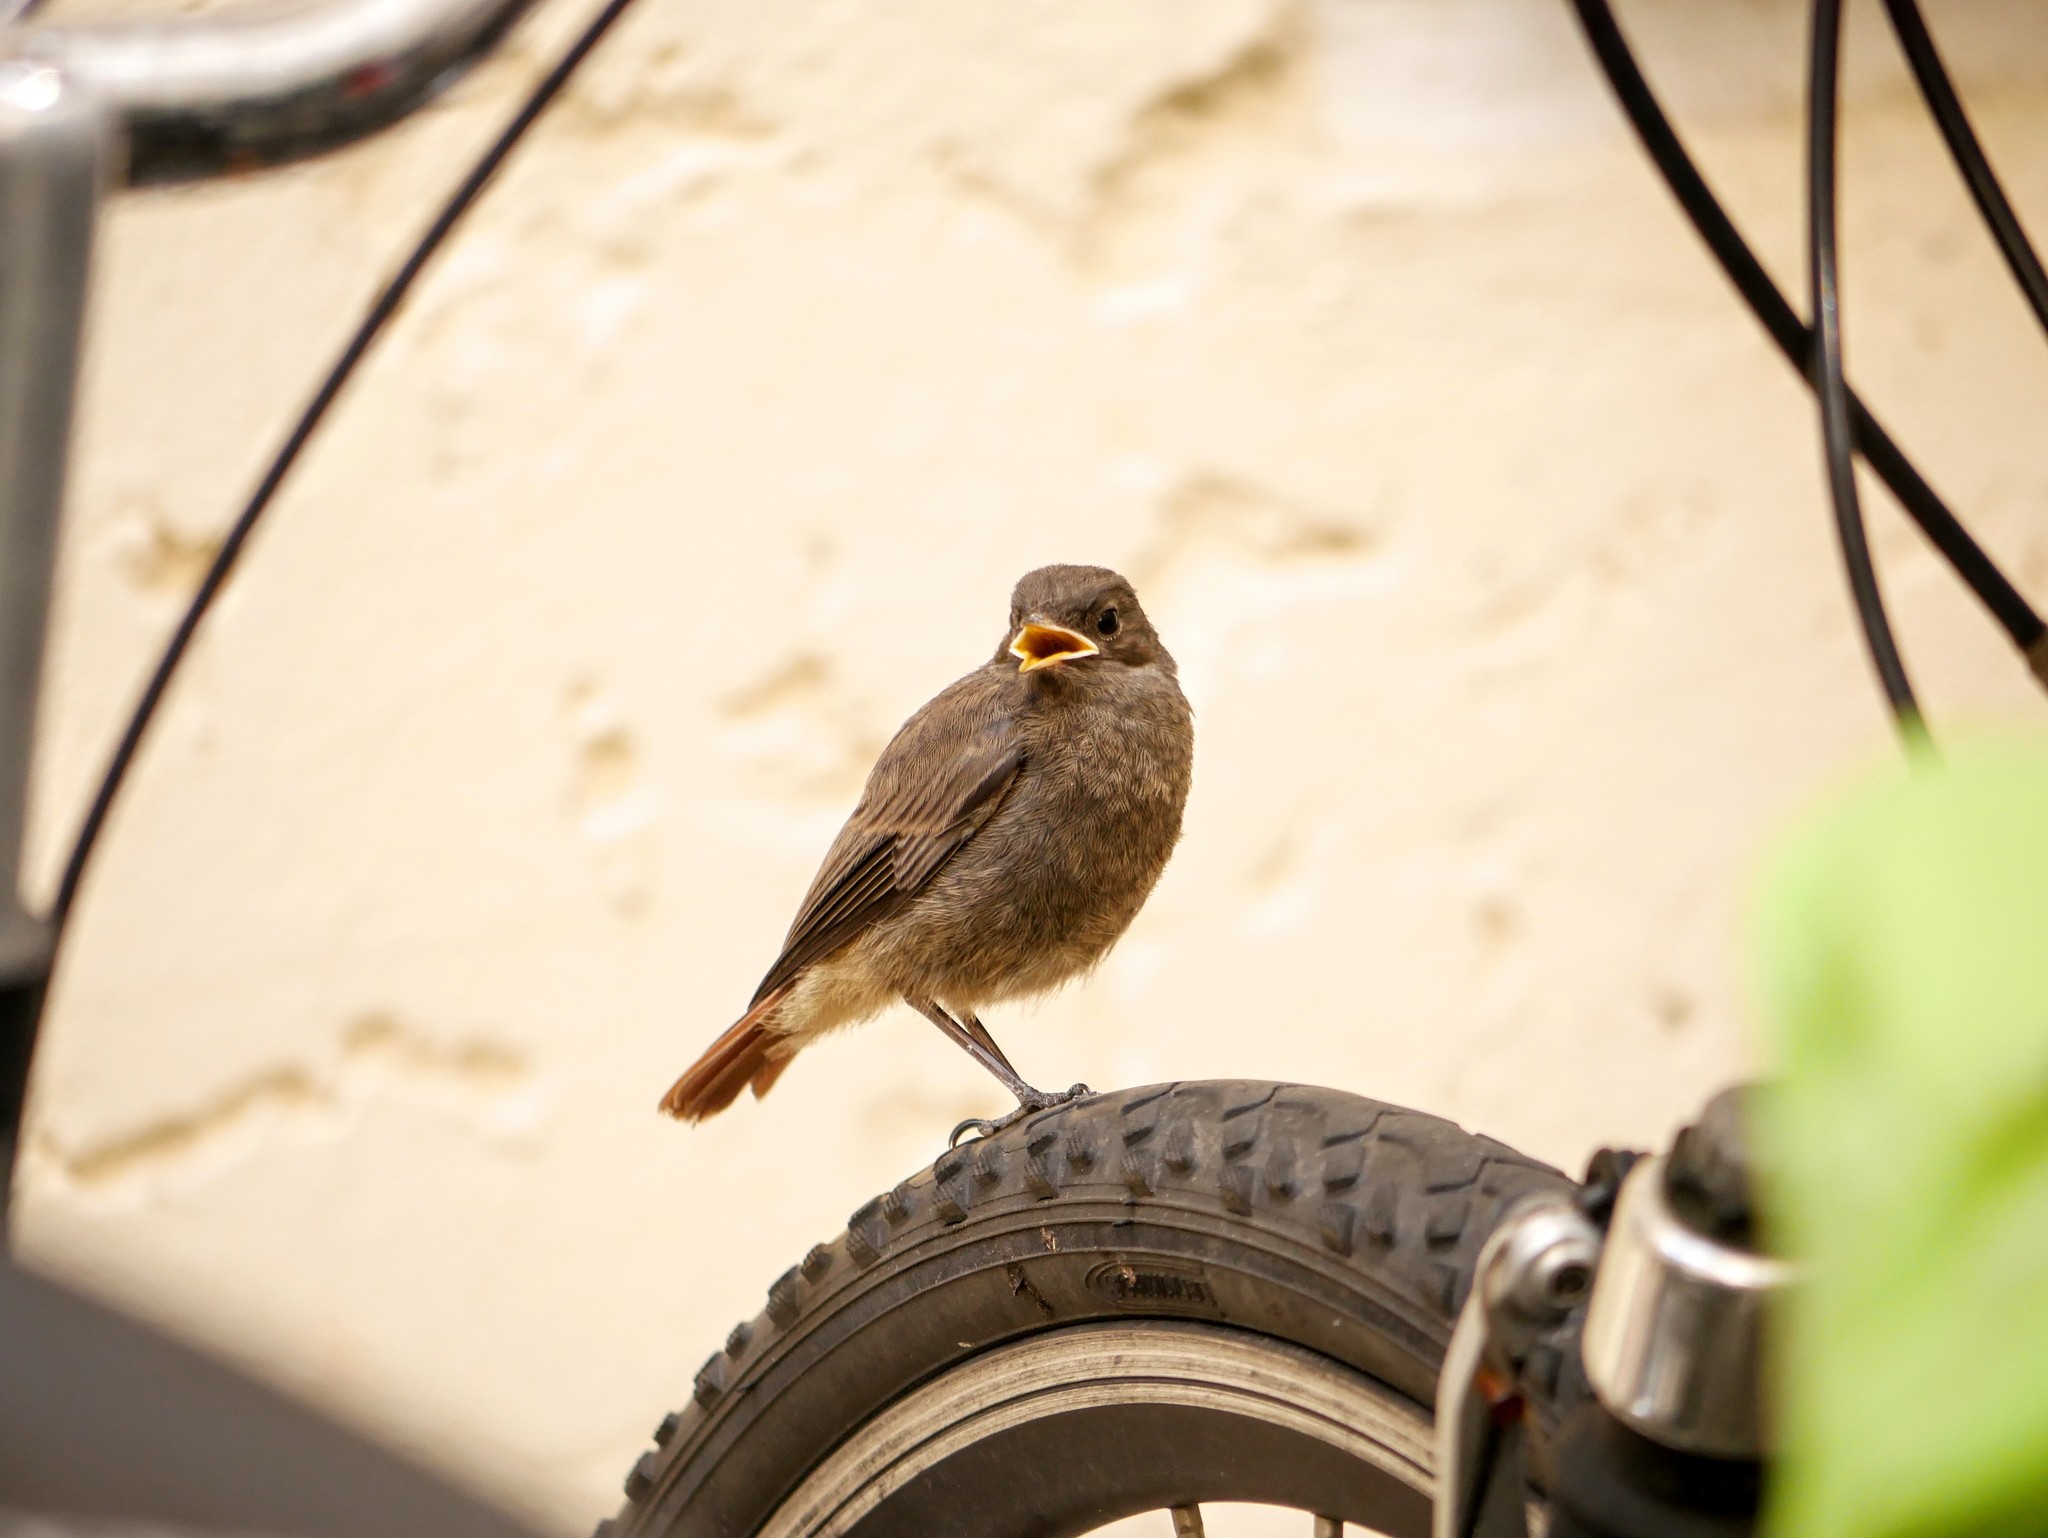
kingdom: Animalia
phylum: Chordata
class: Aves
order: Passeriformes
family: Muscicapidae
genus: Phoenicurus
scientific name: Phoenicurus ochruros
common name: Black redstart
